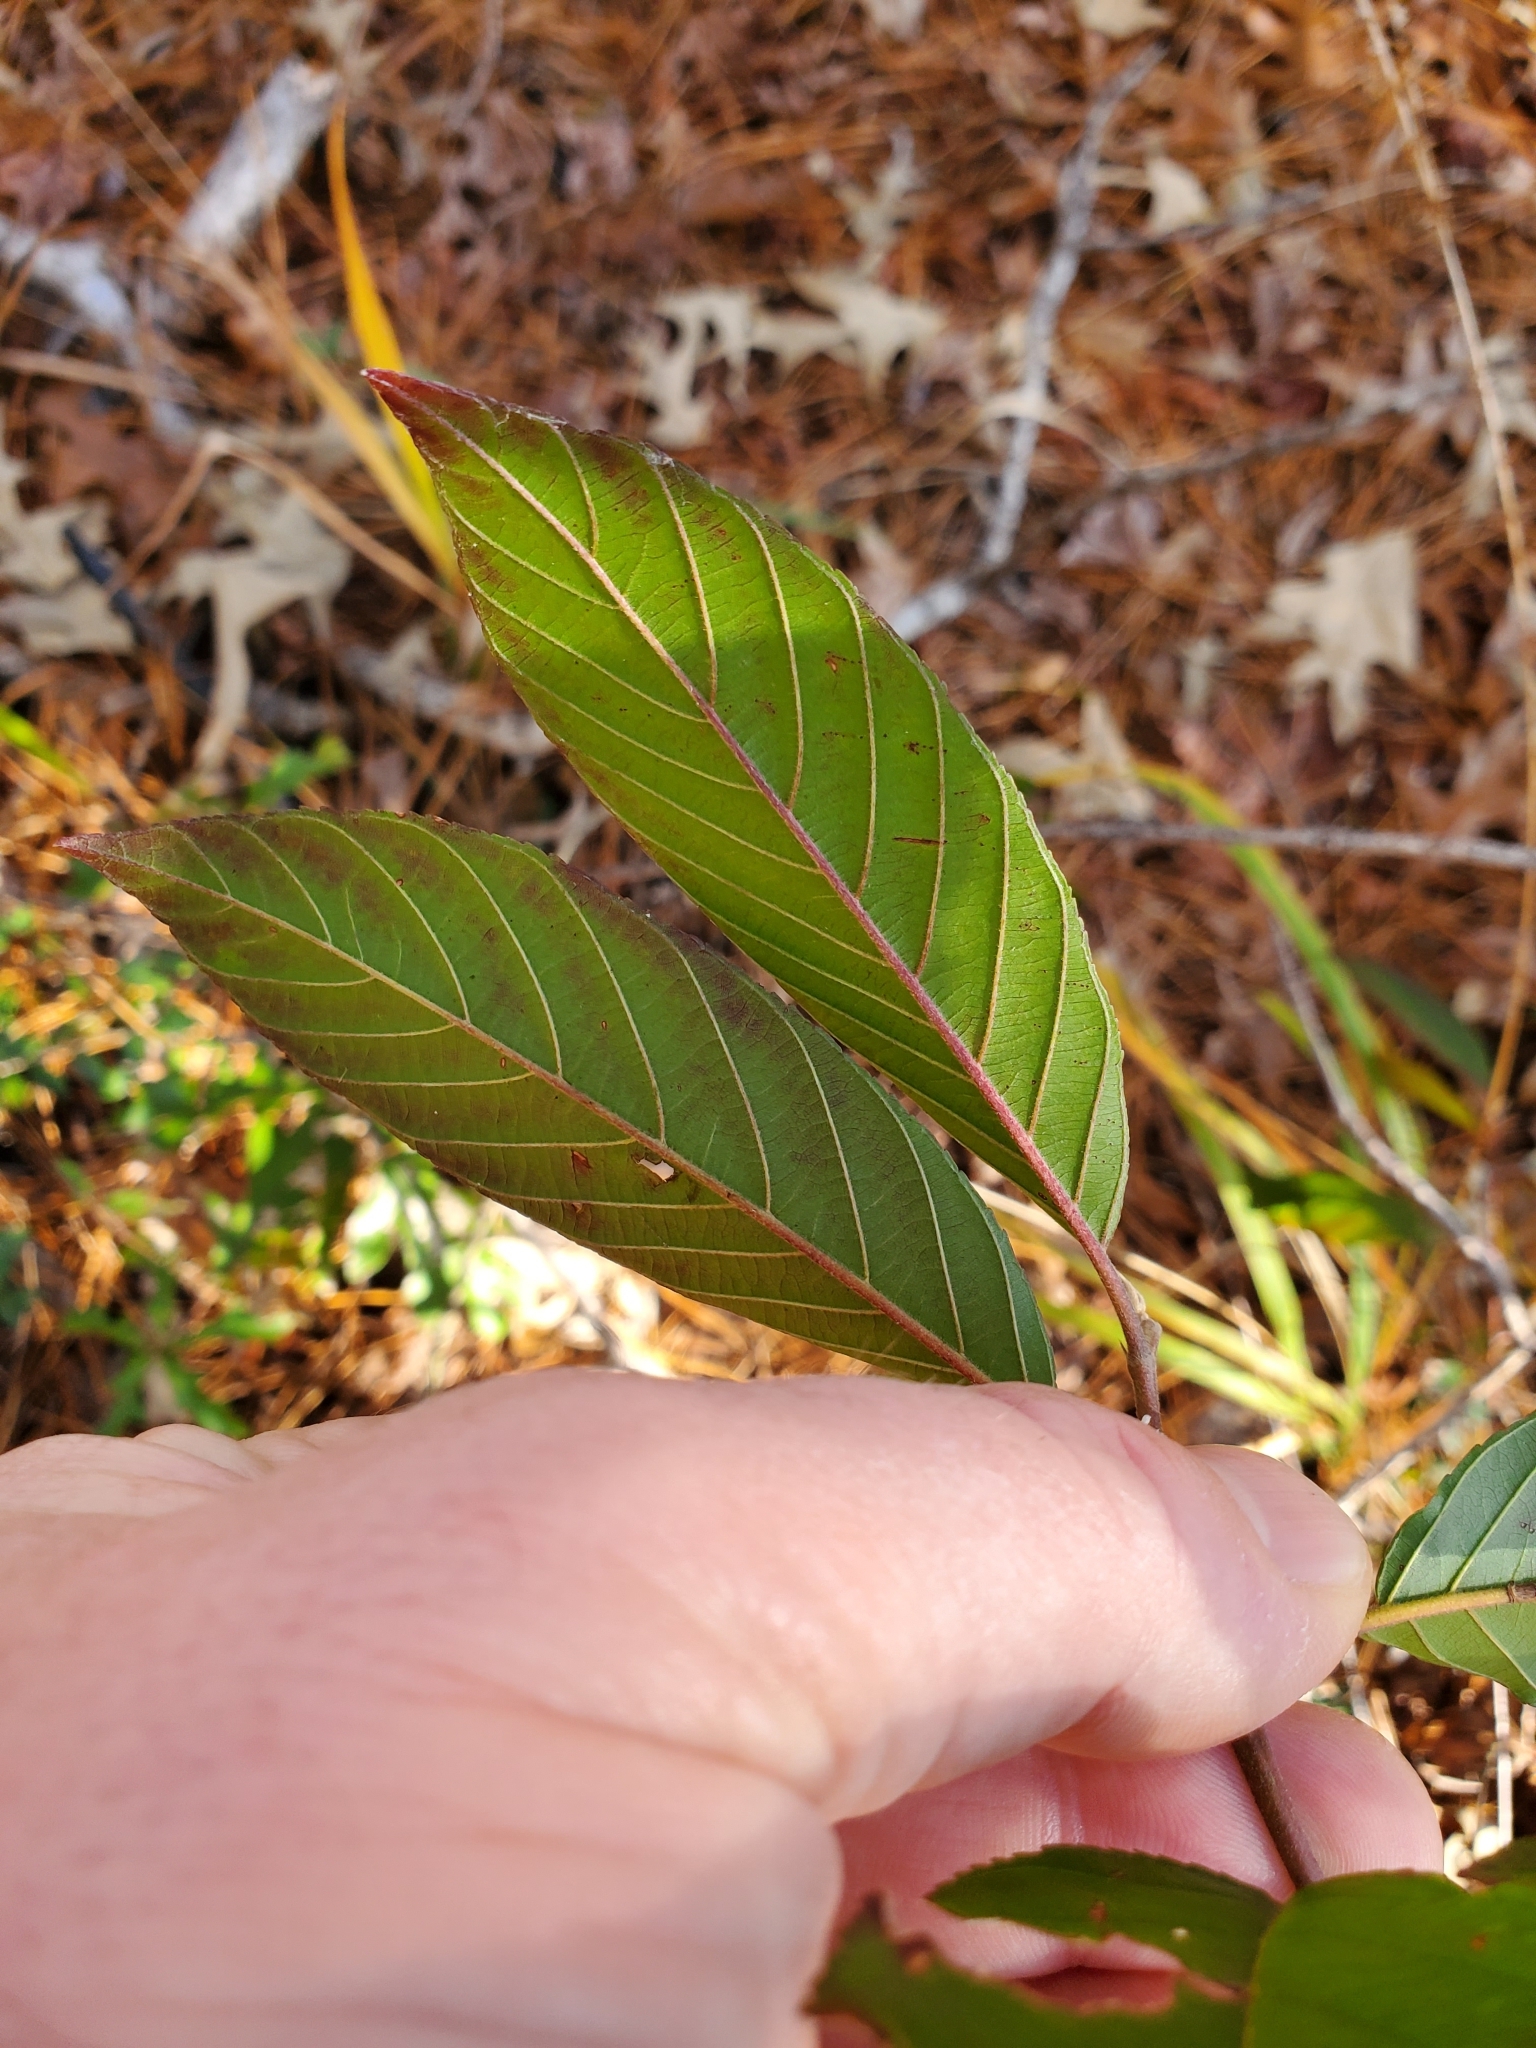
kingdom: Plantae
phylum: Tracheophyta
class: Magnoliopsida
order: Rosales
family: Rhamnaceae
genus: Frangula
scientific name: Frangula caroliniana
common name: Carolina buckthorn
